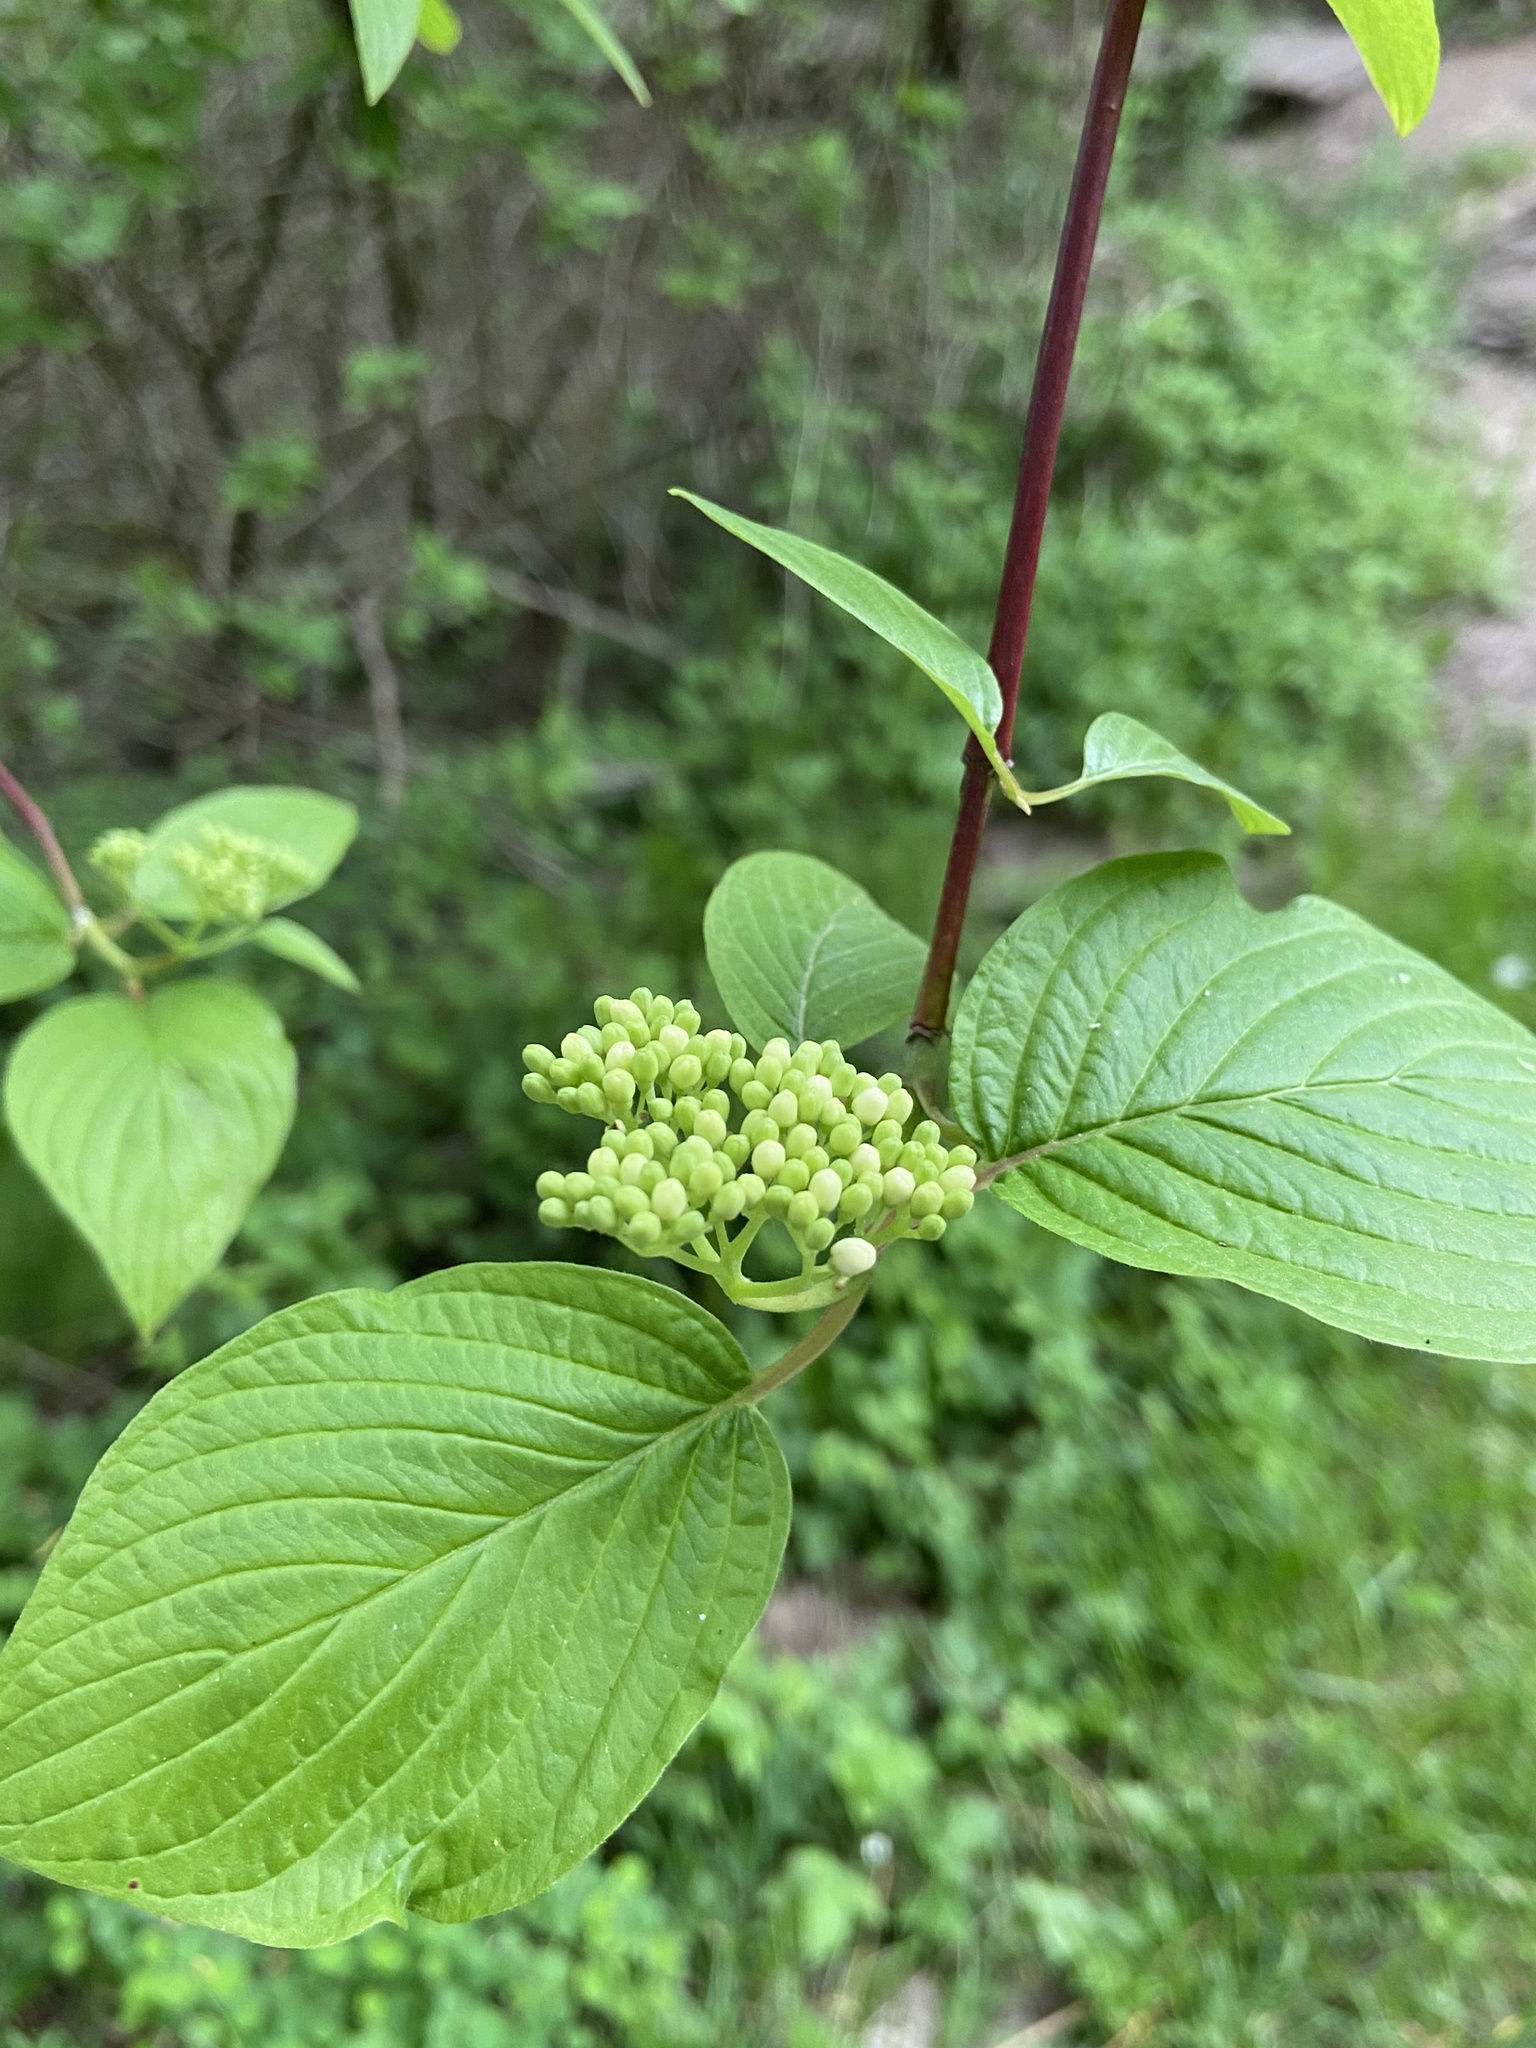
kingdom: Plantae
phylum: Tracheophyta
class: Magnoliopsida
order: Cornales
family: Cornaceae
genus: Cornus
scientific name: Cornus sericea
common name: Red-osier dogwood
